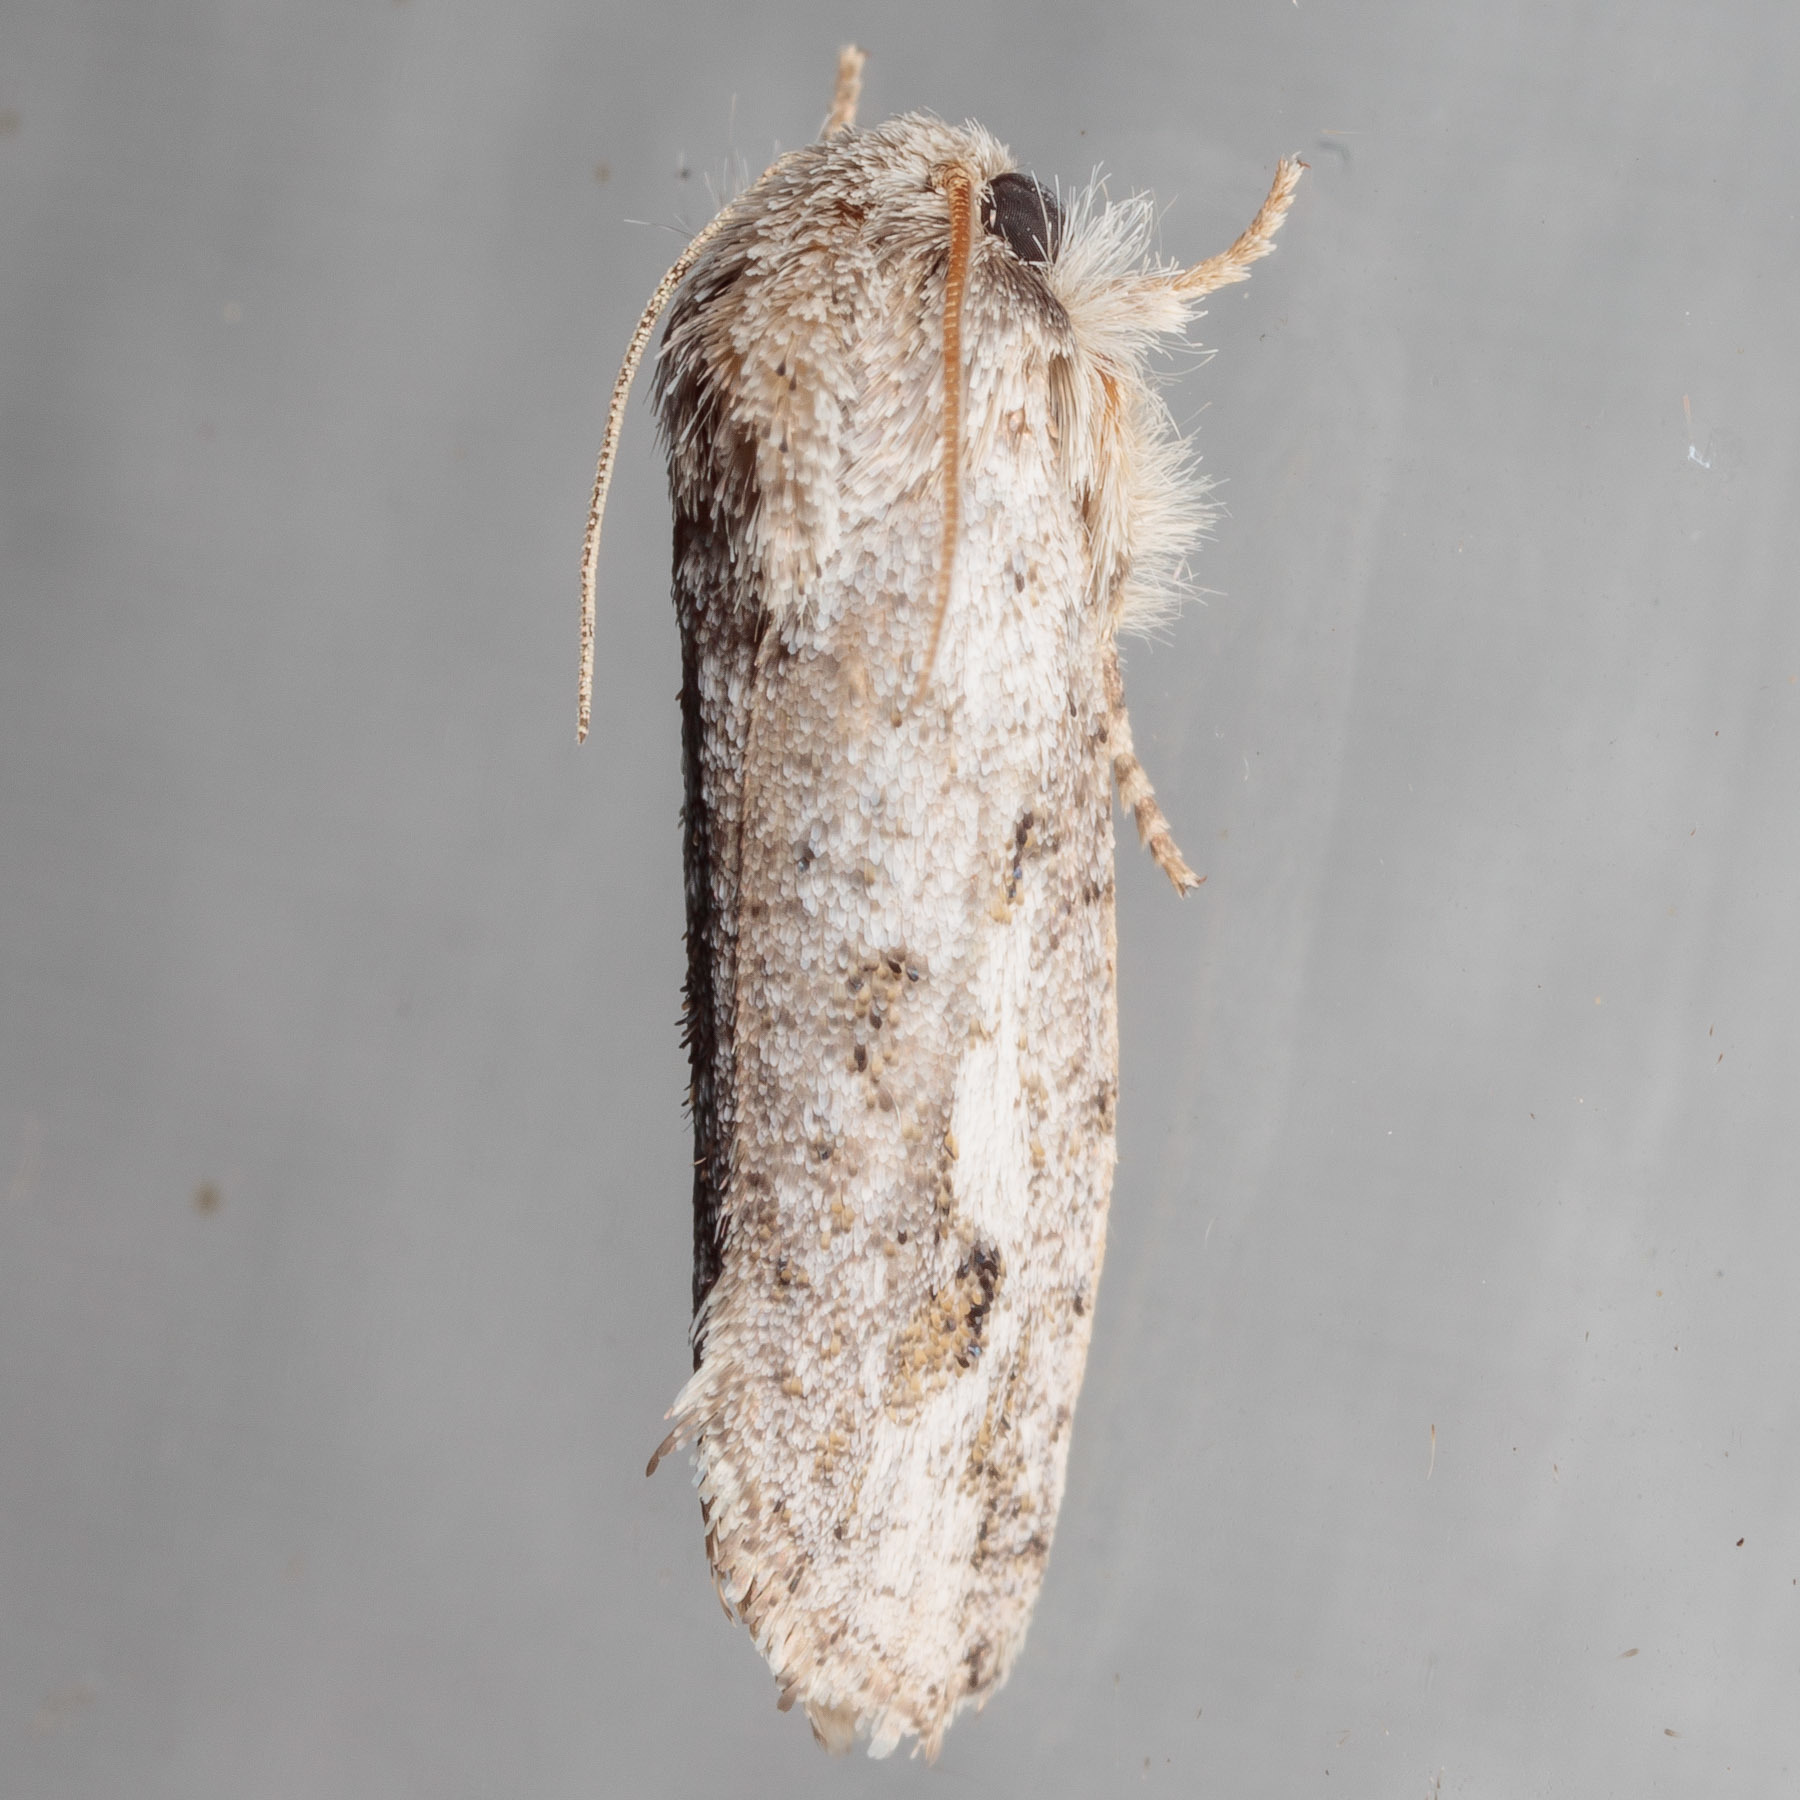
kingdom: Animalia
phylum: Arthropoda
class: Insecta
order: Lepidoptera
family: Tineidae
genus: Acrolophus
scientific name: Acrolophus griseus
